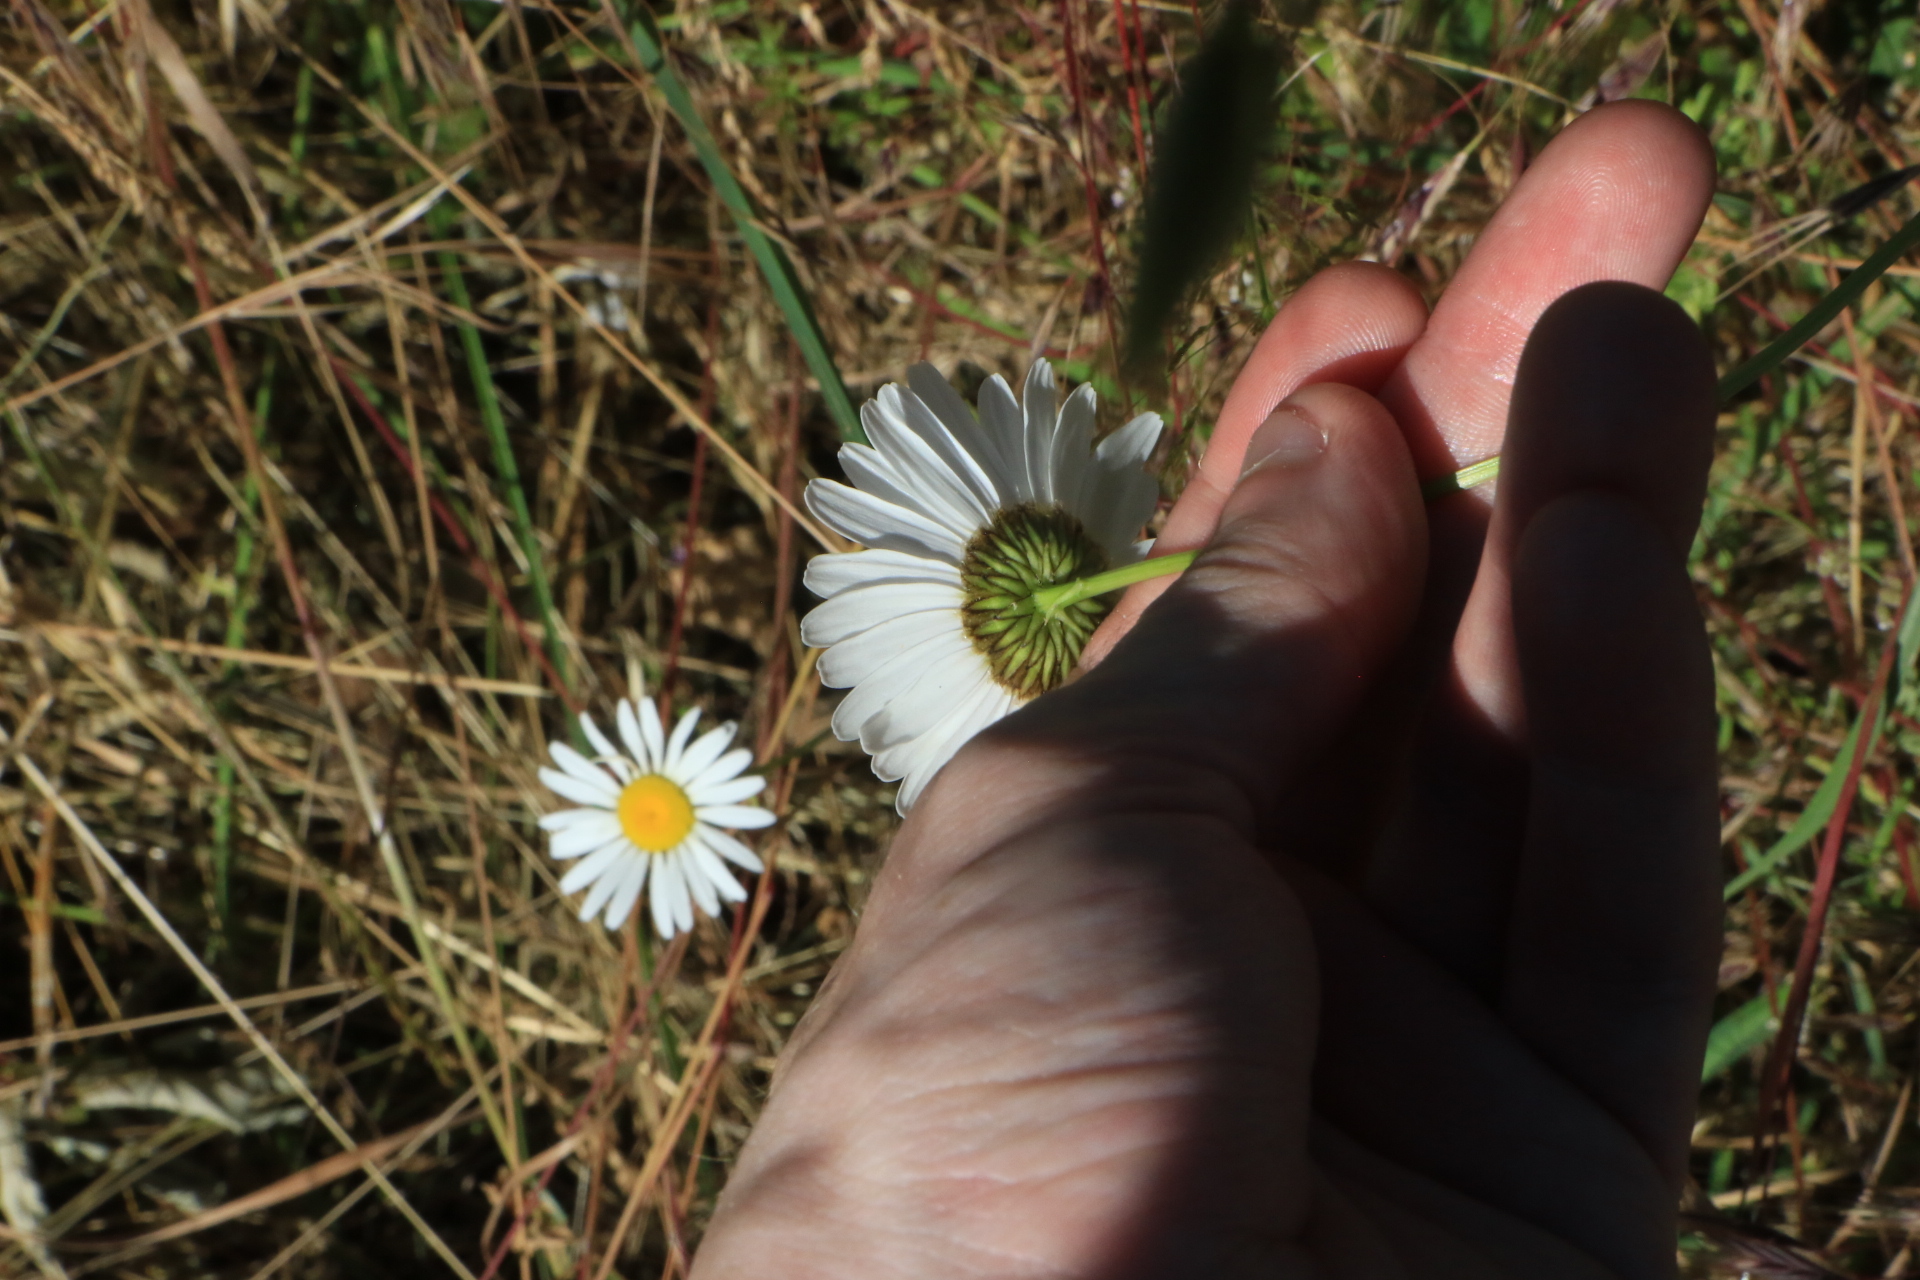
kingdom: Plantae
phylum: Tracheophyta
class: Magnoliopsida
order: Asterales
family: Asteraceae
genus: Leucanthemum
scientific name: Leucanthemum vulgare
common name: Oxeye daisy
